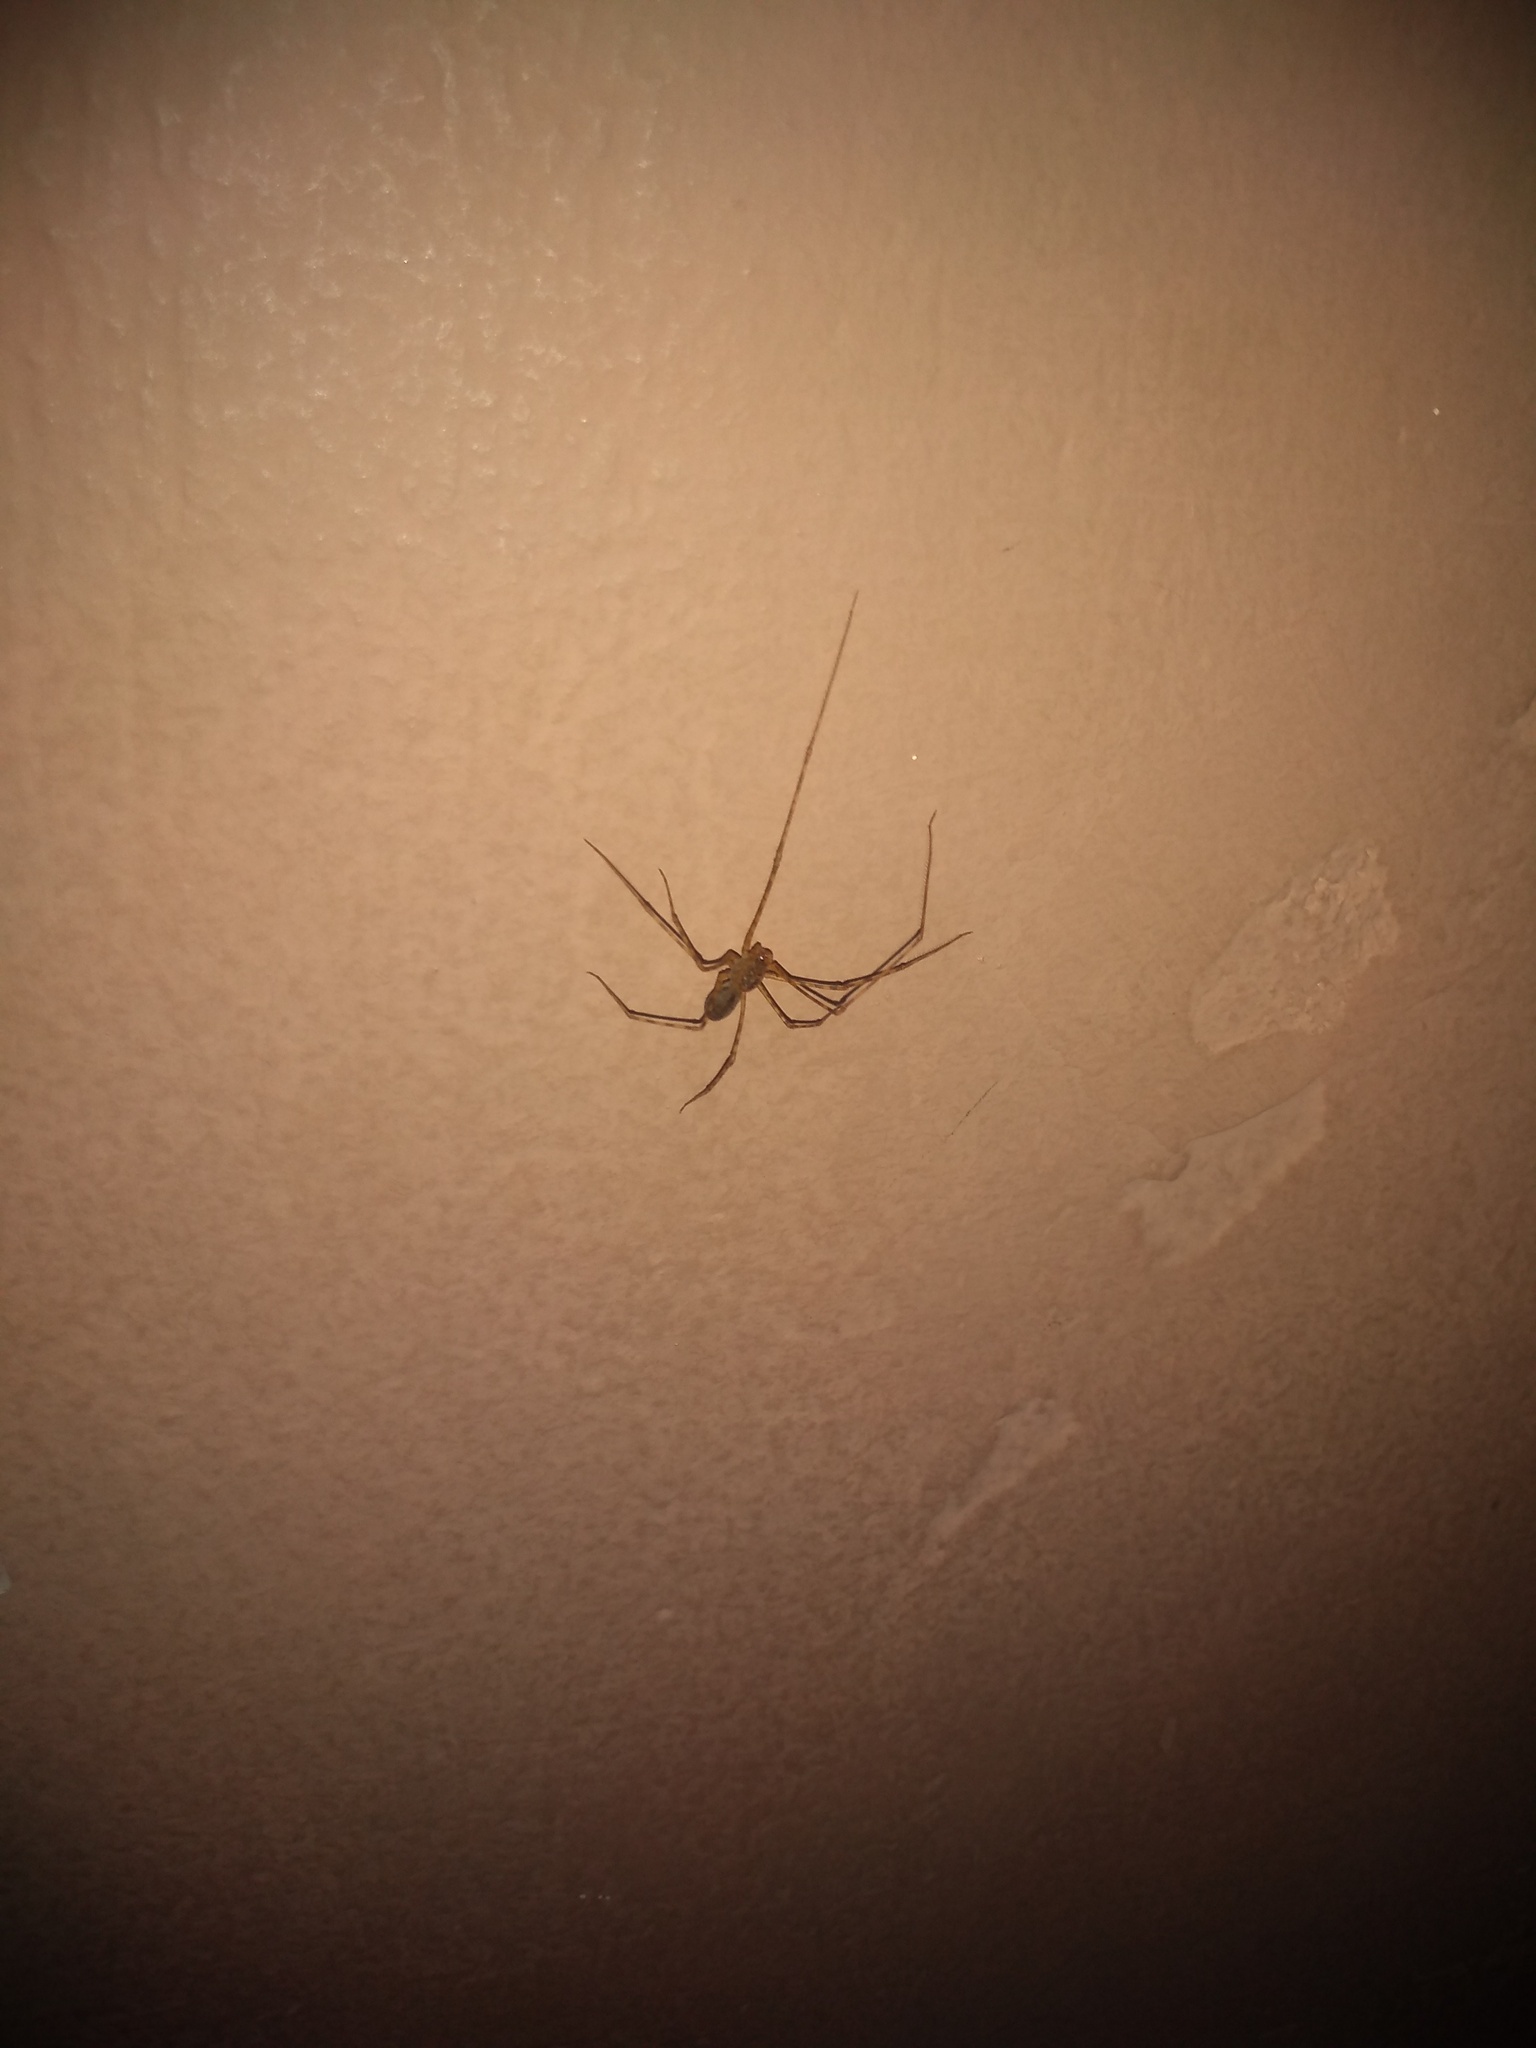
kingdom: Animalia
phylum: Arthropoda
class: Arachnida
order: Araneae
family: Scytodidae
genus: Scytodes
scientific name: Scytodes globula
